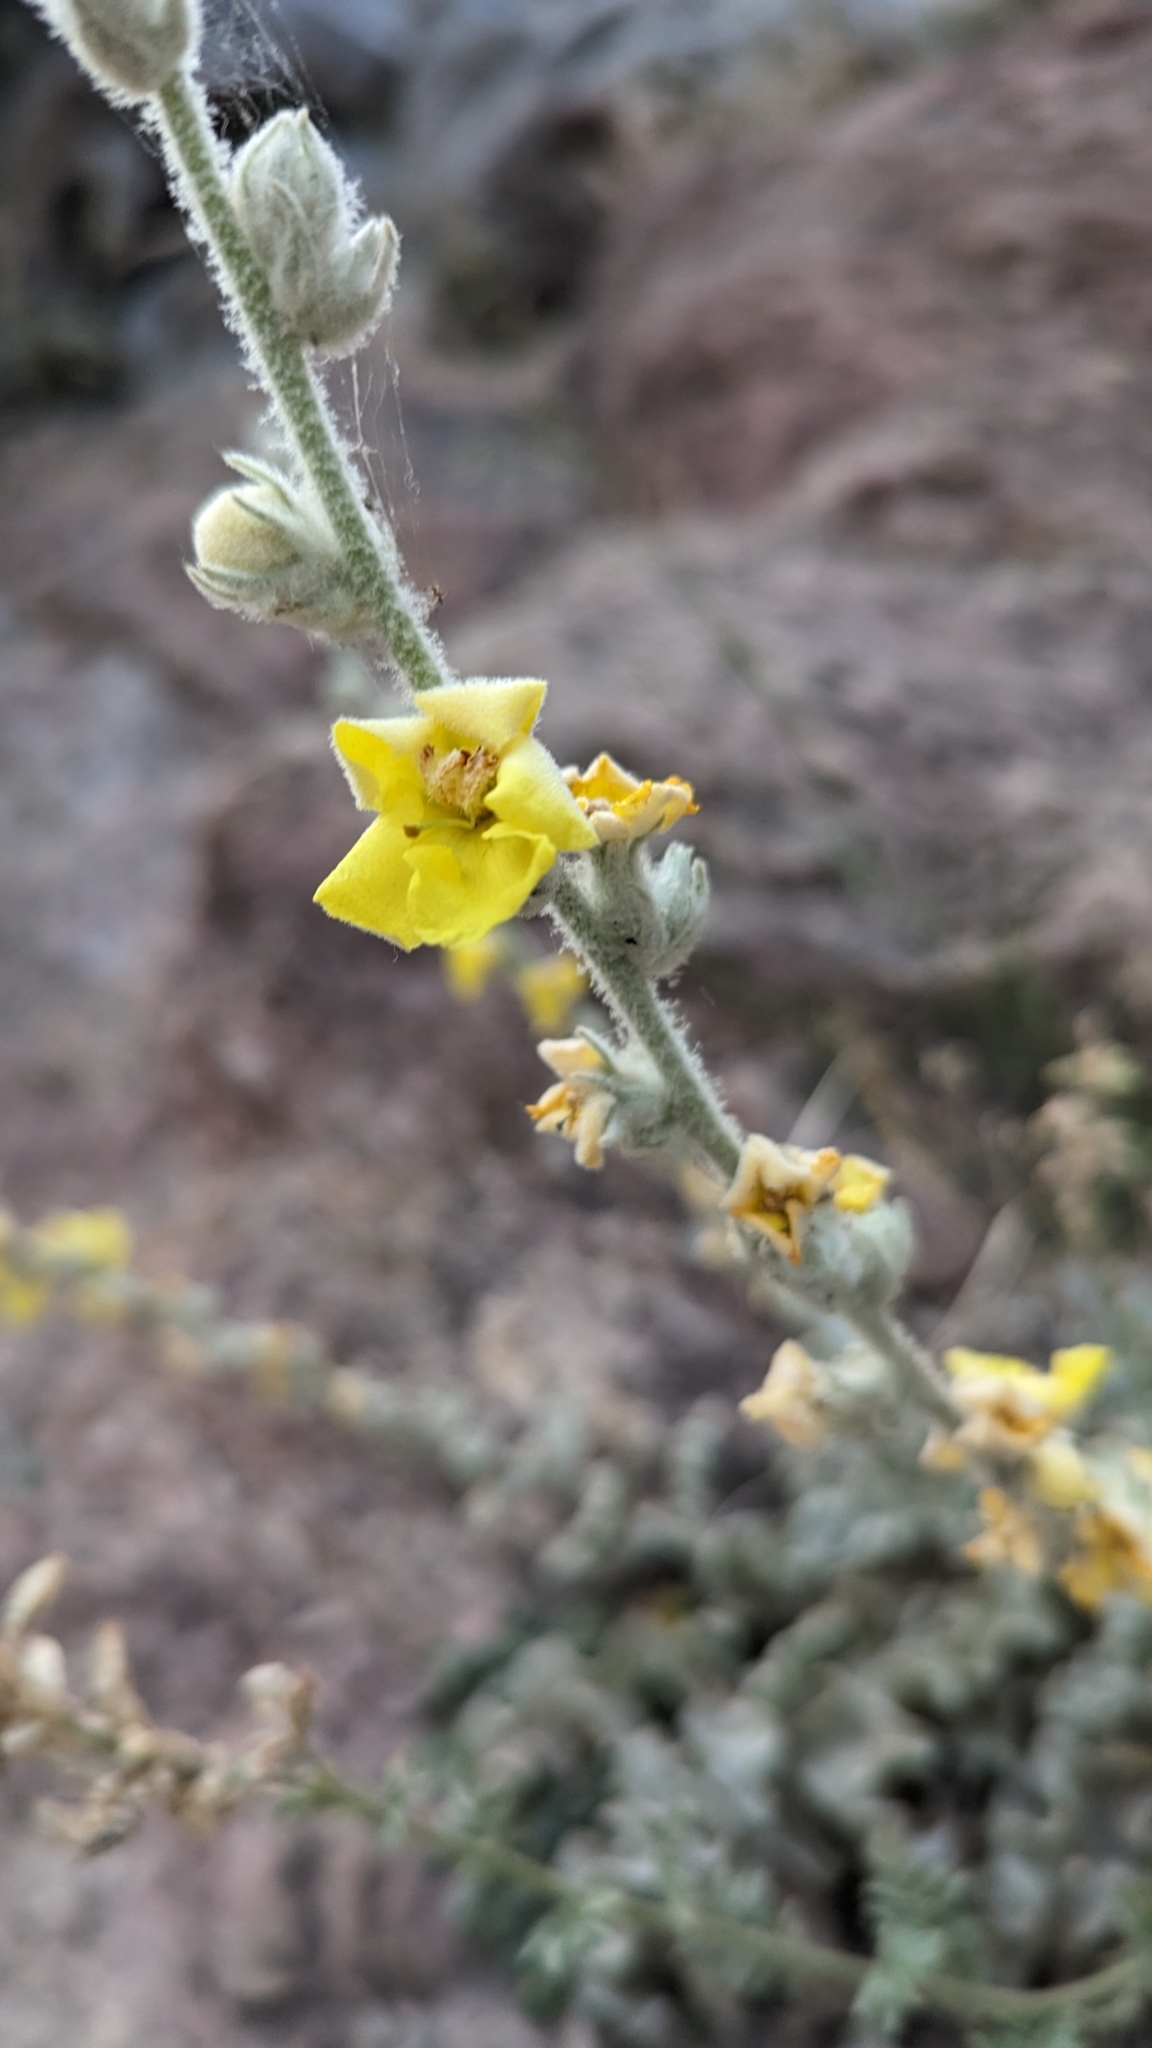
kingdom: Plantae
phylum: Tracheophyta
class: Magnoliopsida
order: Lamiales
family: Scrophulariaceae
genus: Verbascum
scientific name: Verbascum undulatum
